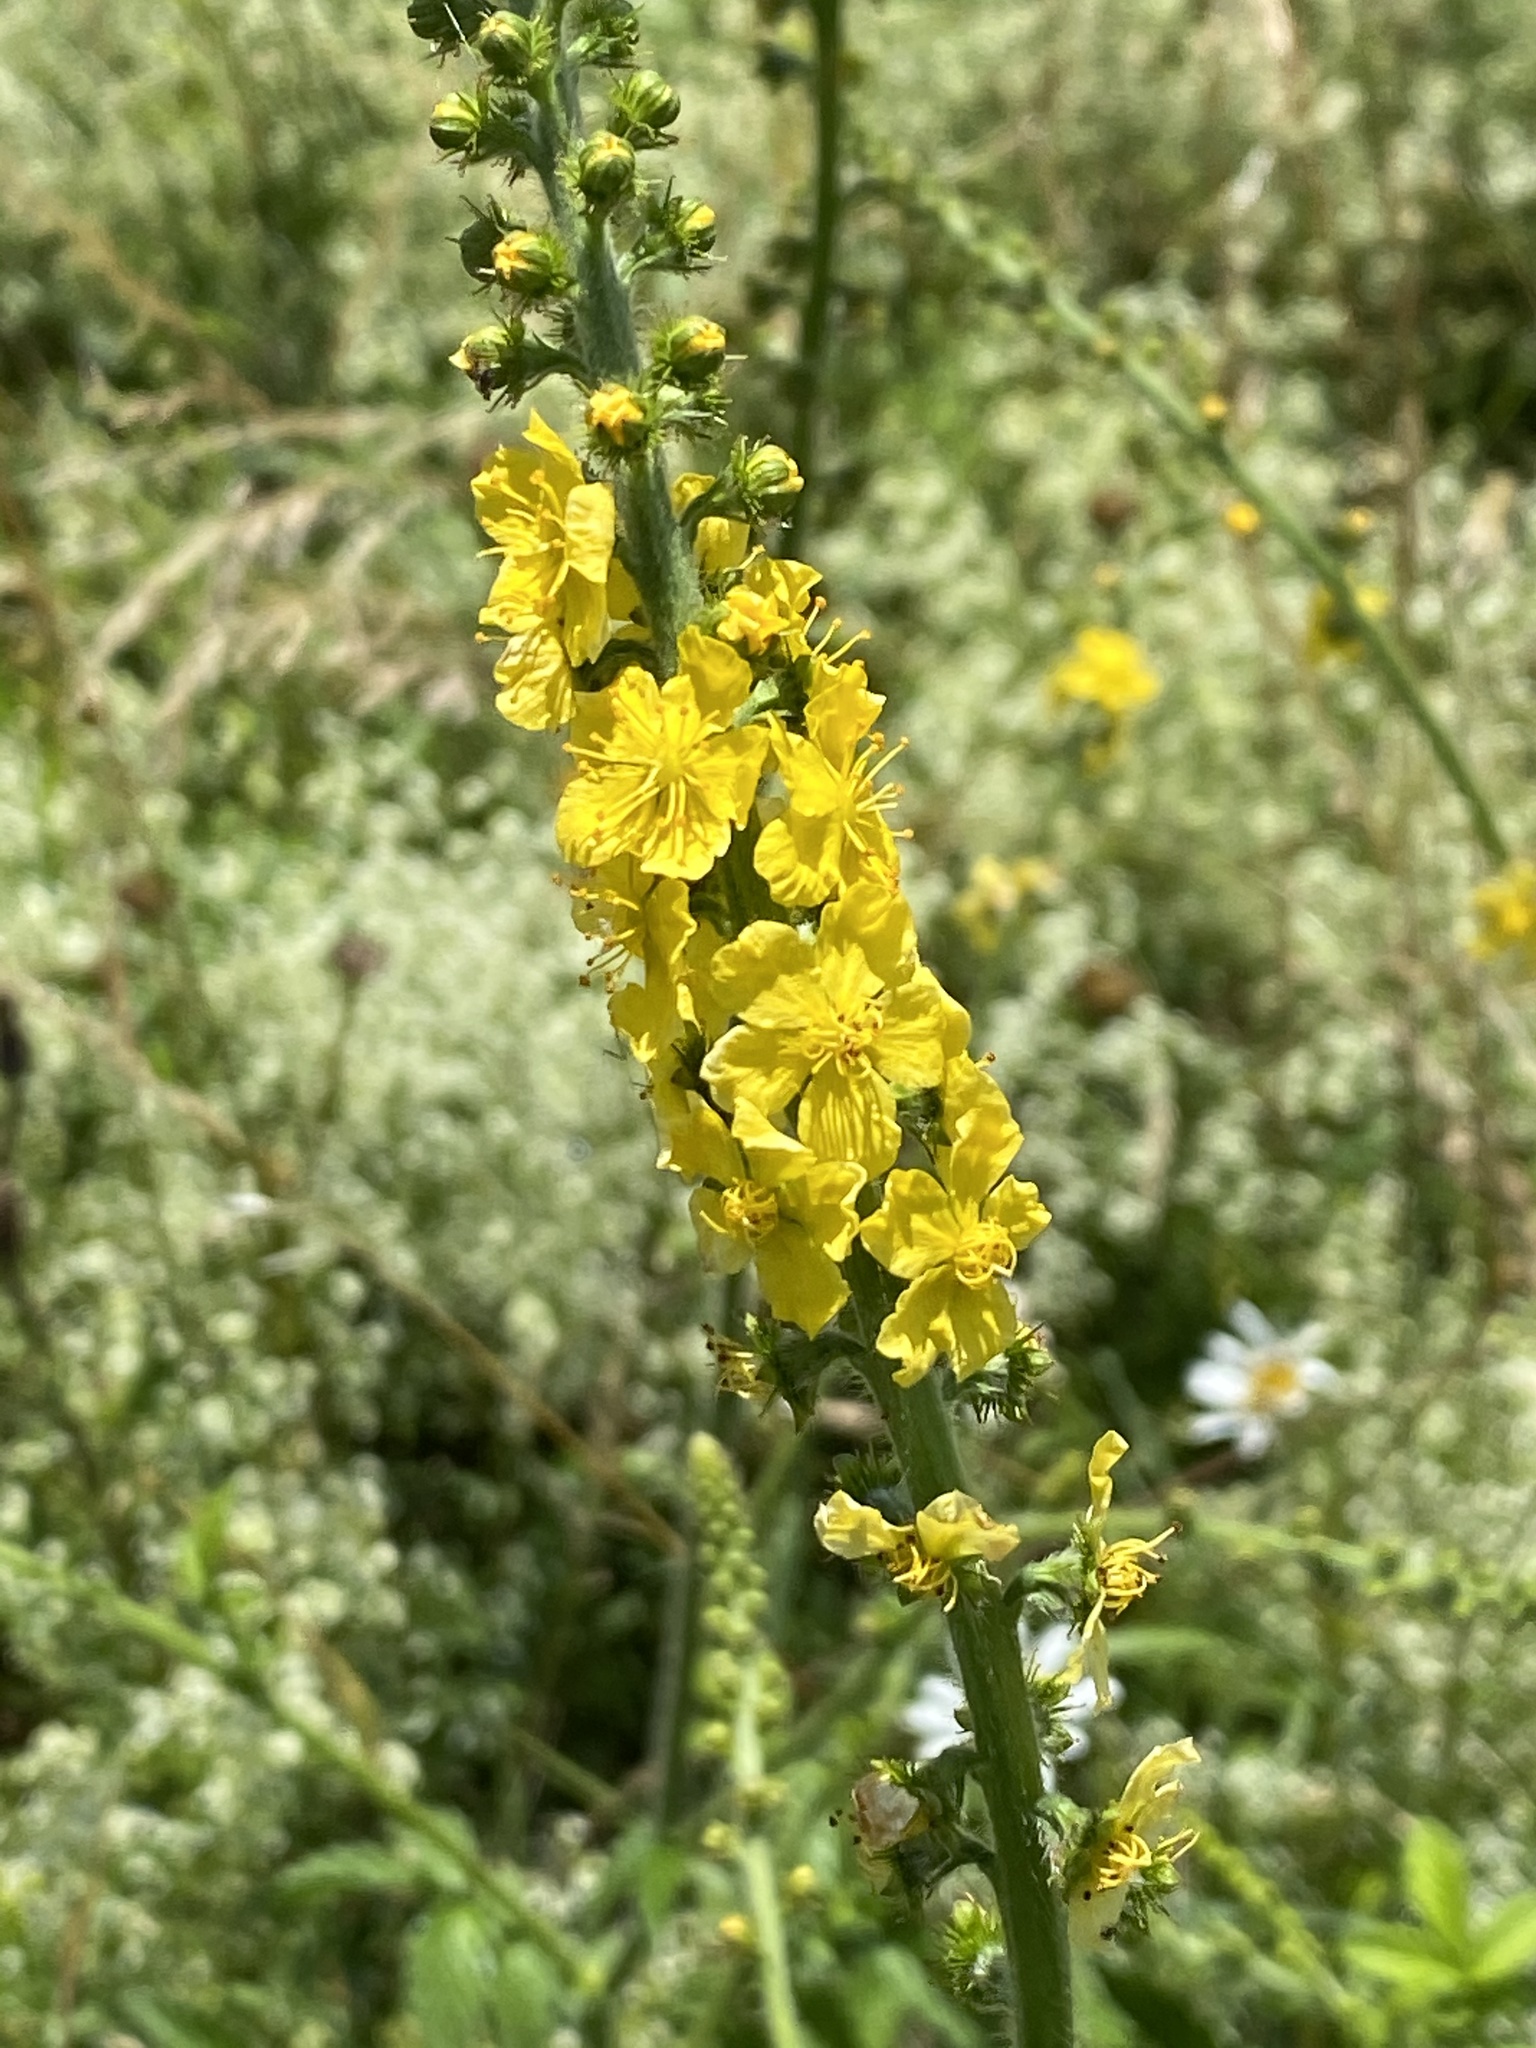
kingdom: Plantae
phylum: Tracheophyta
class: Magnoliopsida
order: Rosales
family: Rosaceae
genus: Agrimonia
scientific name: Agrimonia eupatoria
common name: Agrimony
